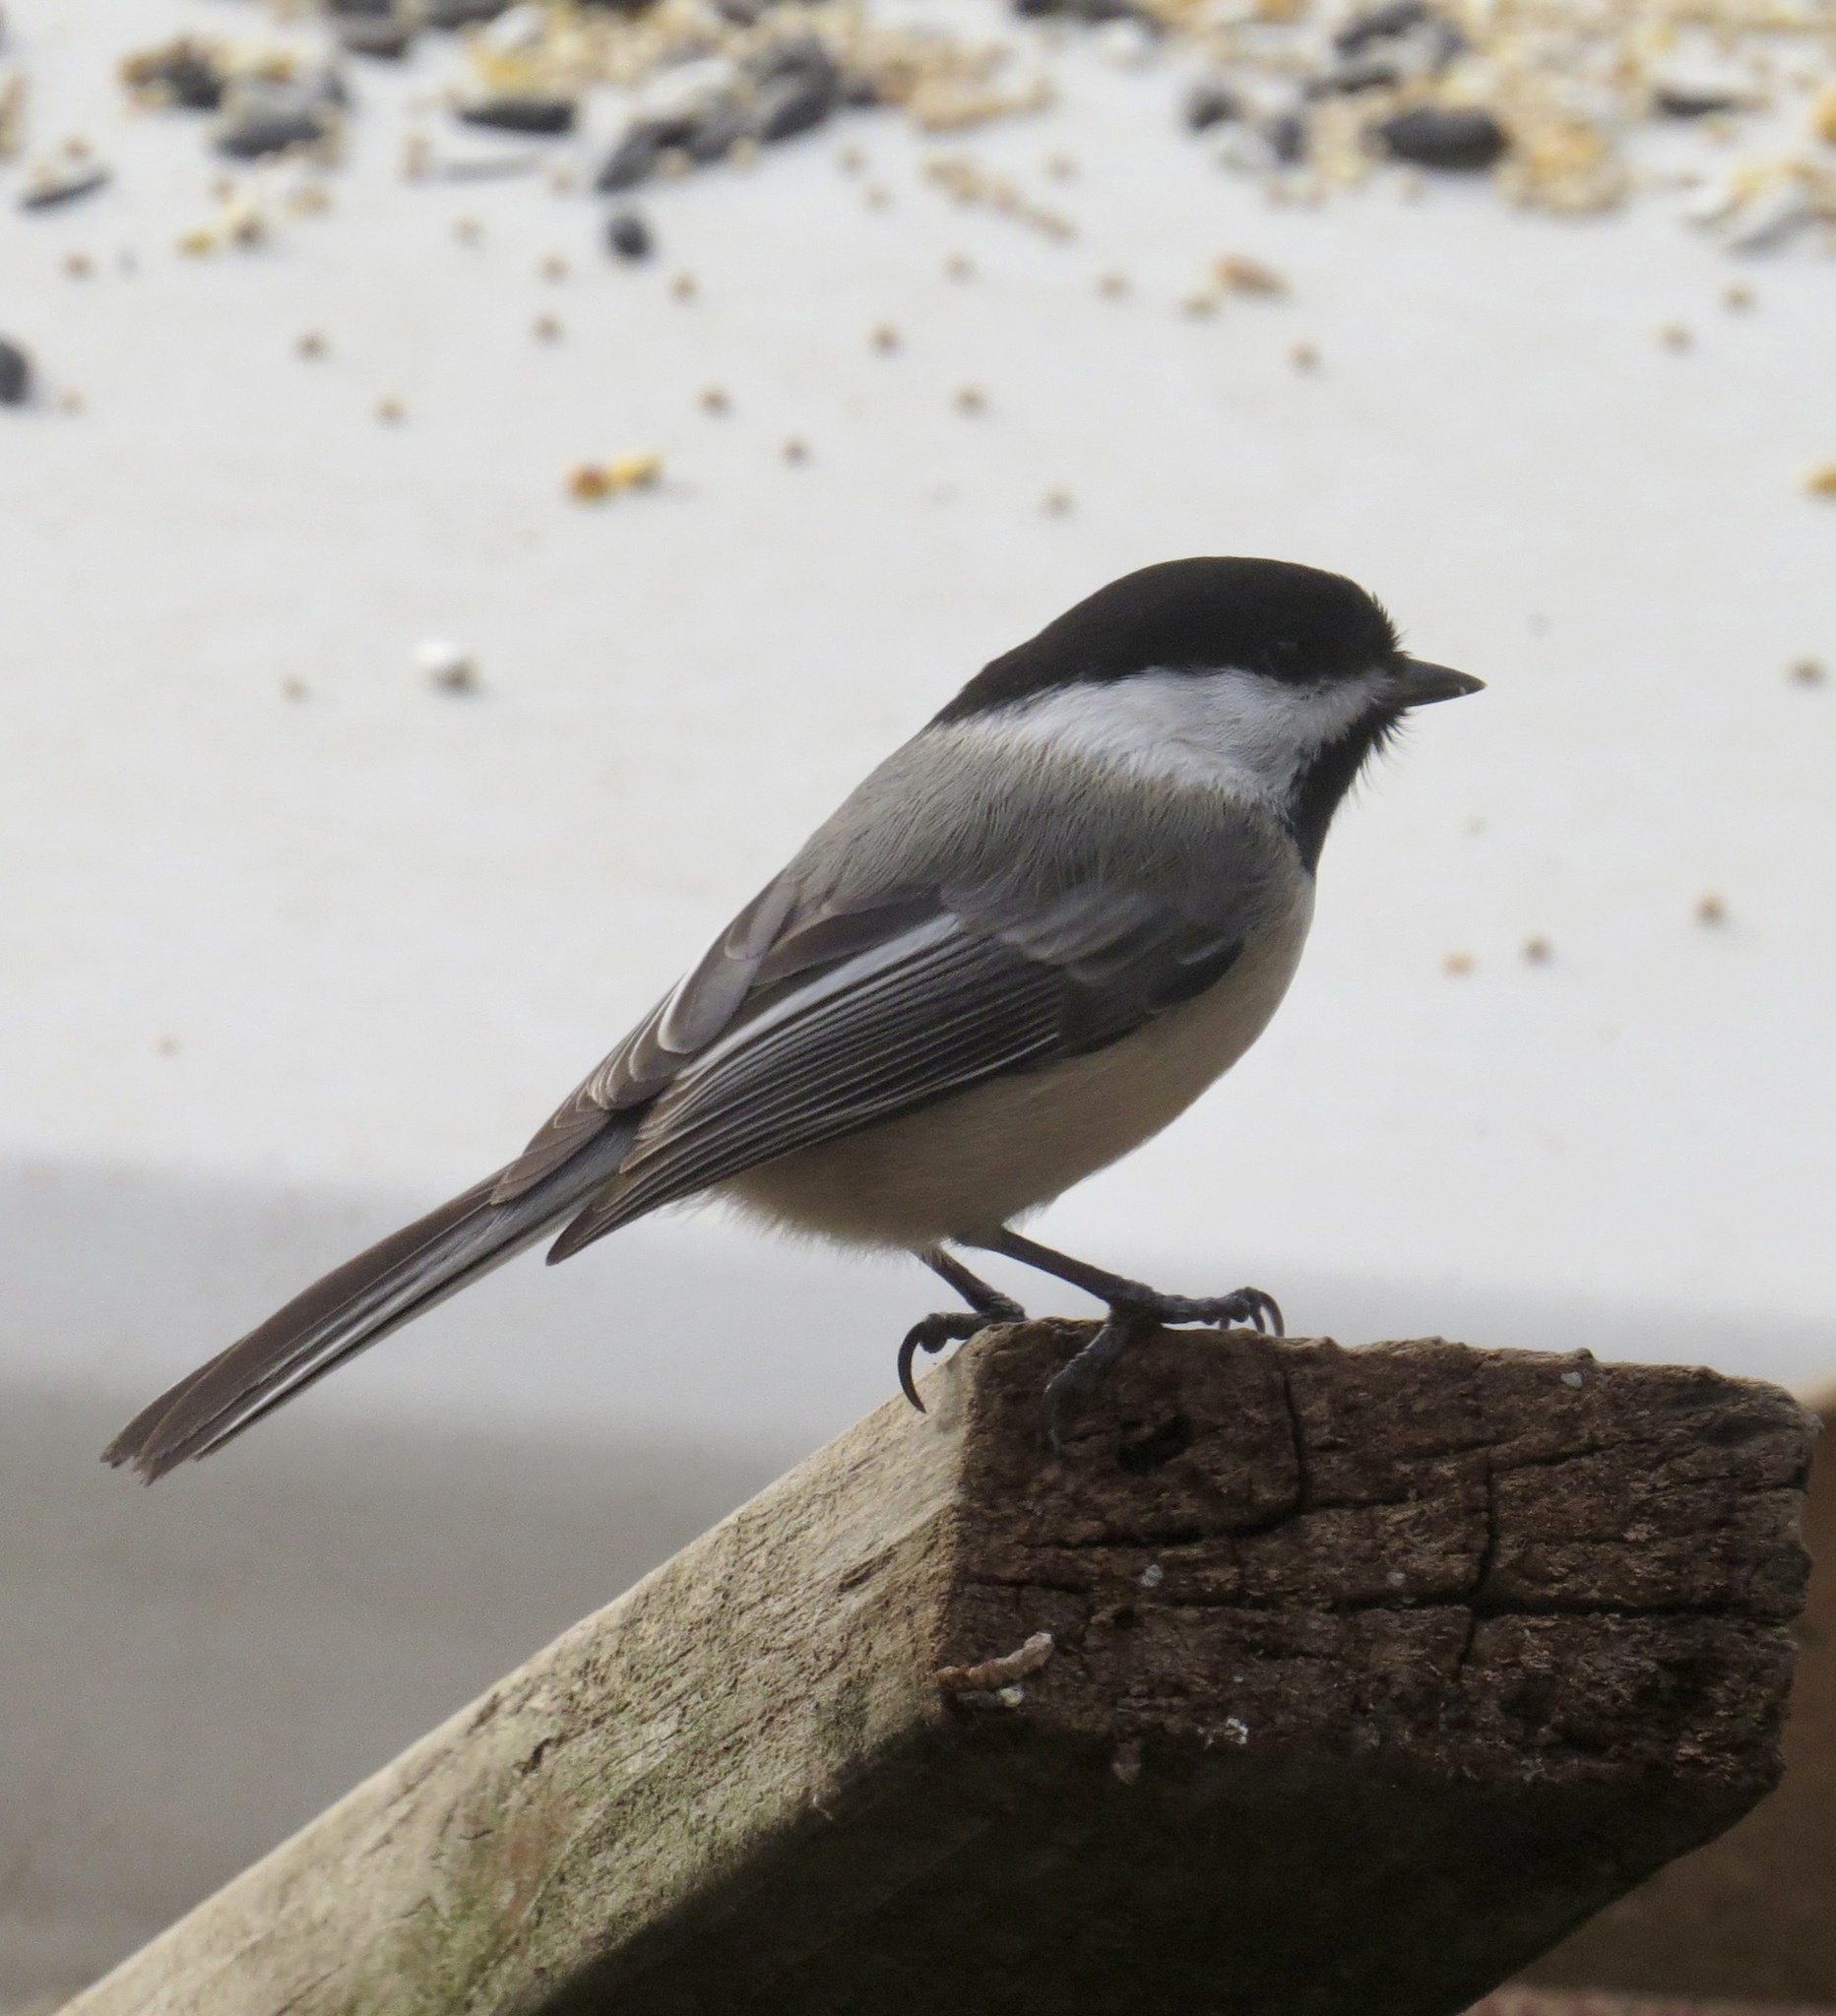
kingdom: Animalia
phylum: Chordata
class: Aves
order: Passeriformes
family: Paridae
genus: Poecile
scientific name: Poecile atricapillus
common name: Black-capped chickadee
